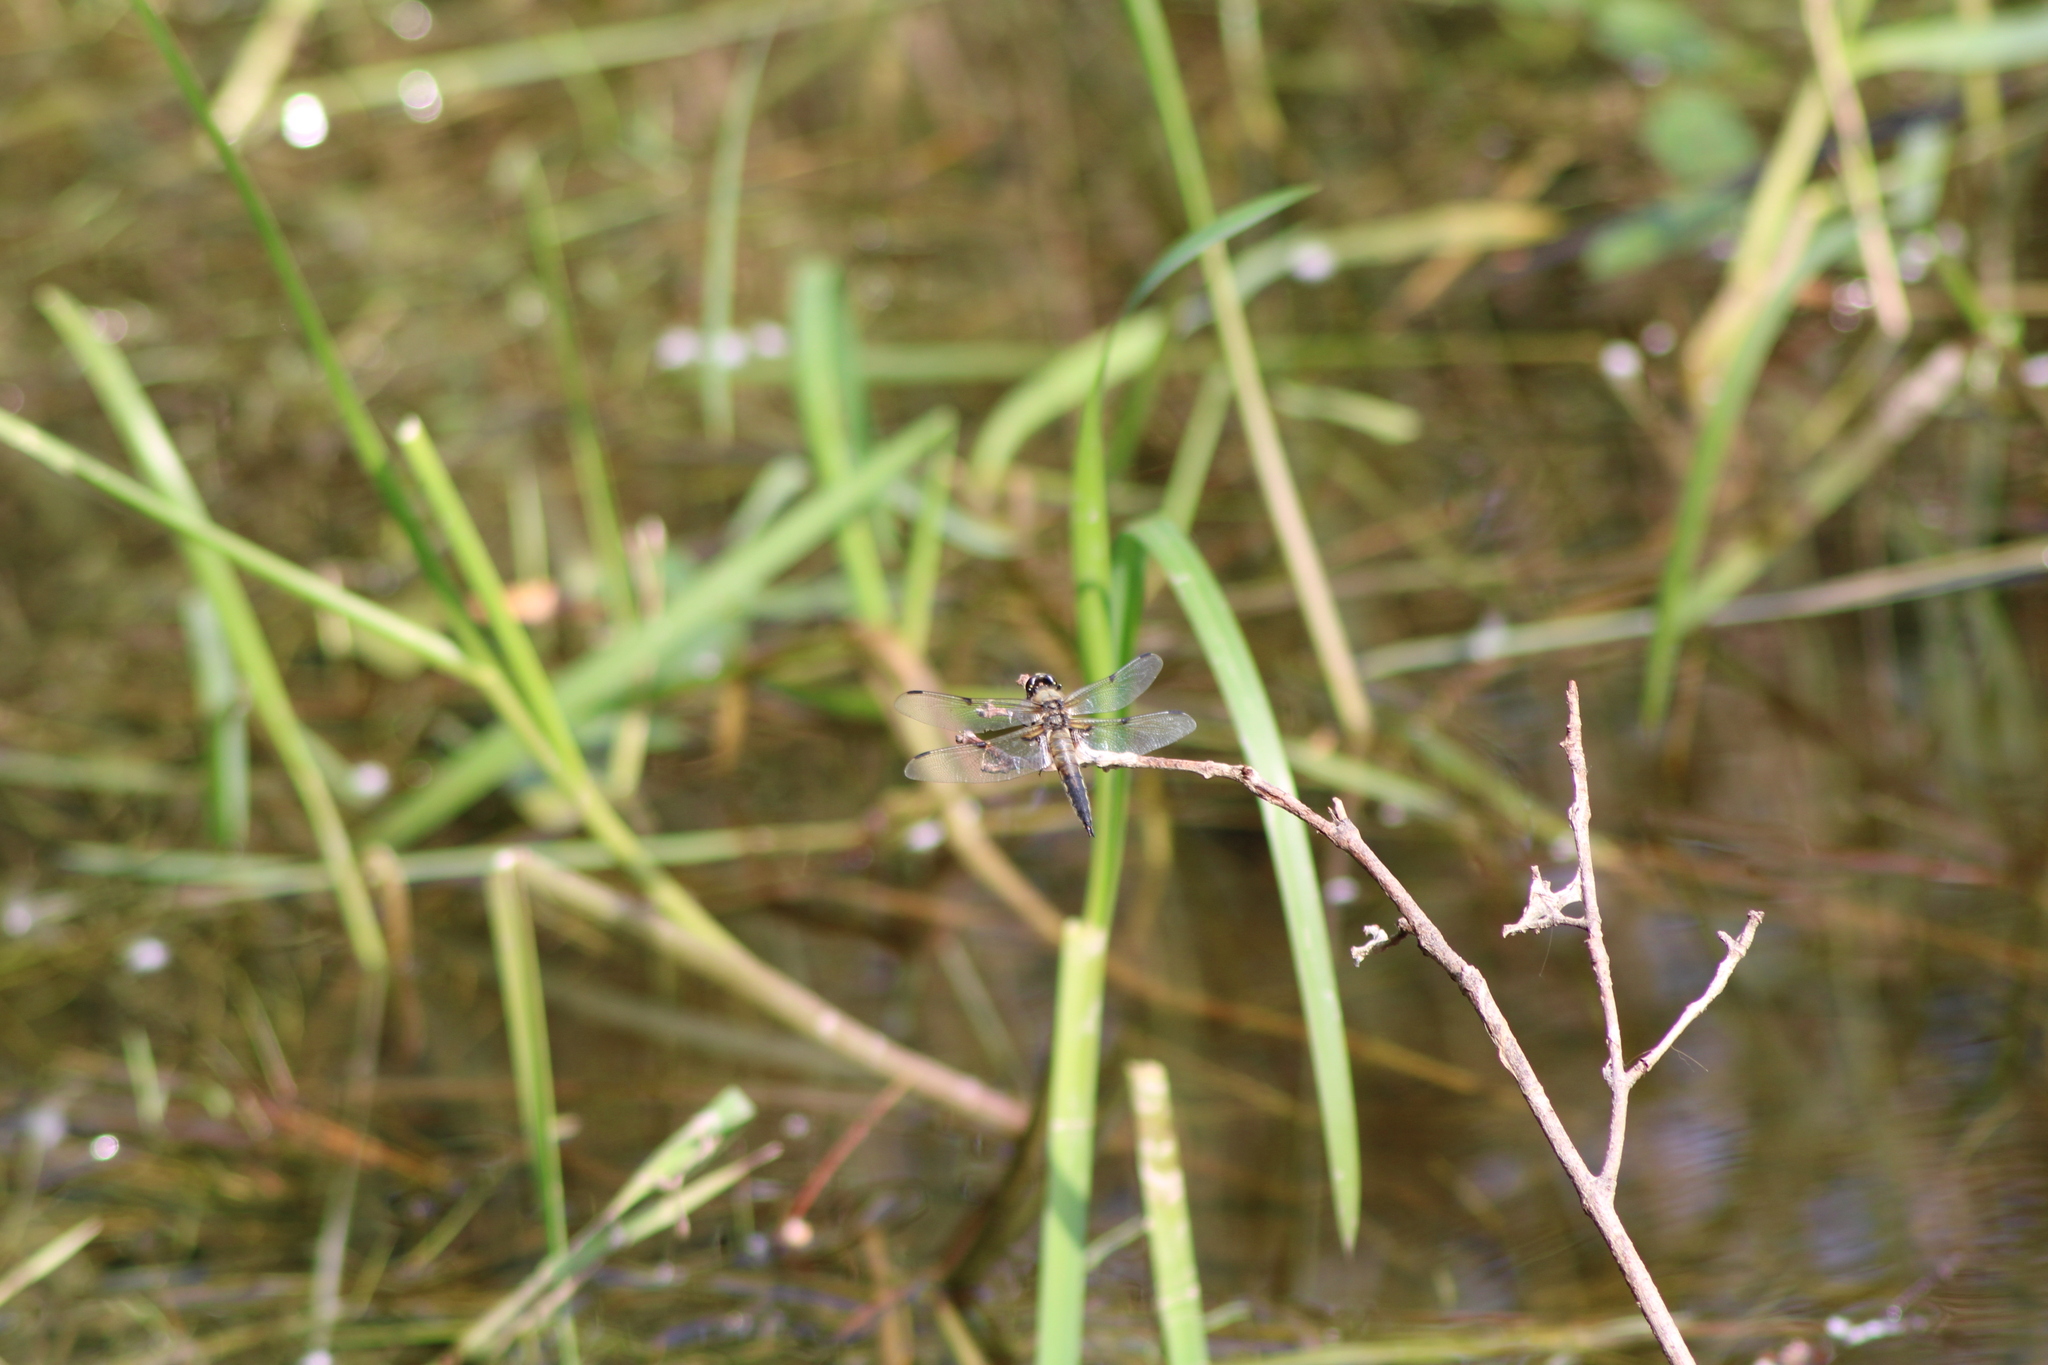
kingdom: Animalia
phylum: Arthropoda
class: Insecta
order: Odonata
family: Libellulidae
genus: Libellula
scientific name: Libellula quadrimaculata
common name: Four-spotted chaser
